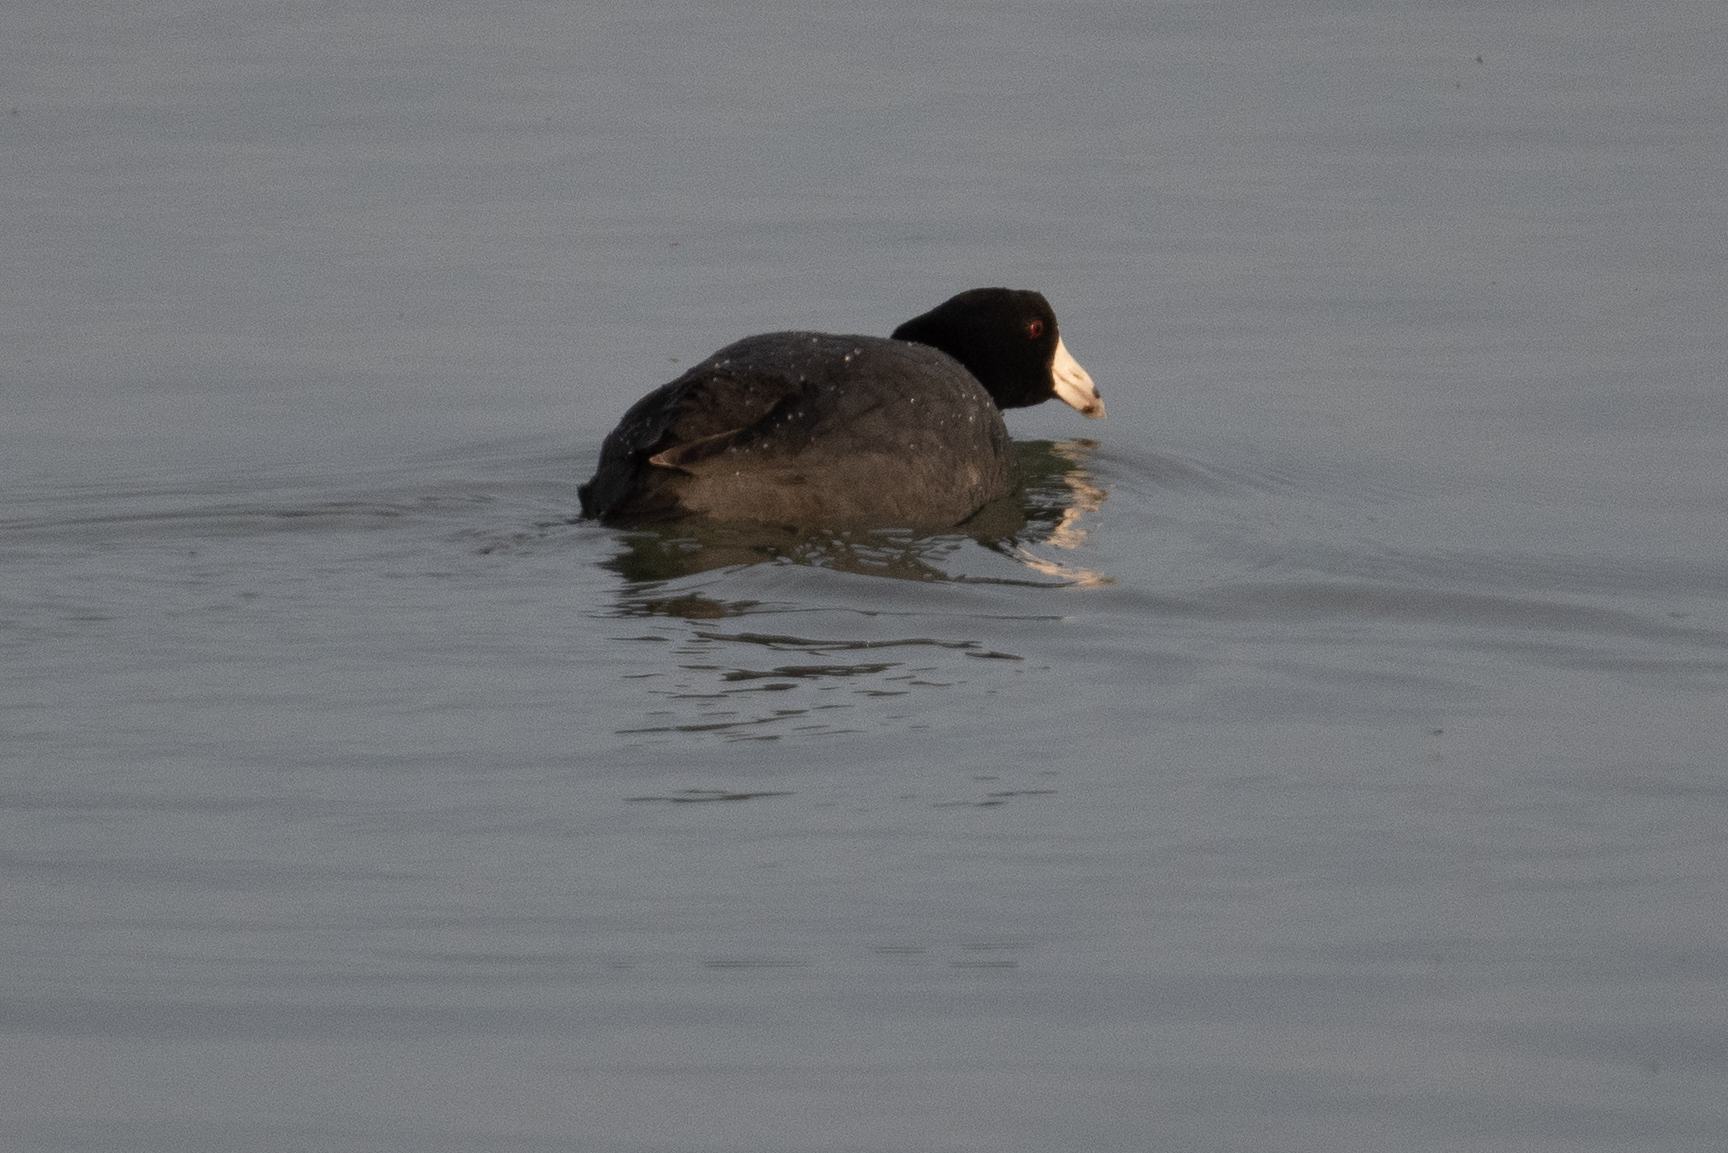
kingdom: Animalia
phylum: Chordata
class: Aves
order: Gruiformes
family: Rallidae
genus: Fulica
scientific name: Fulica americana
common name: American coot
